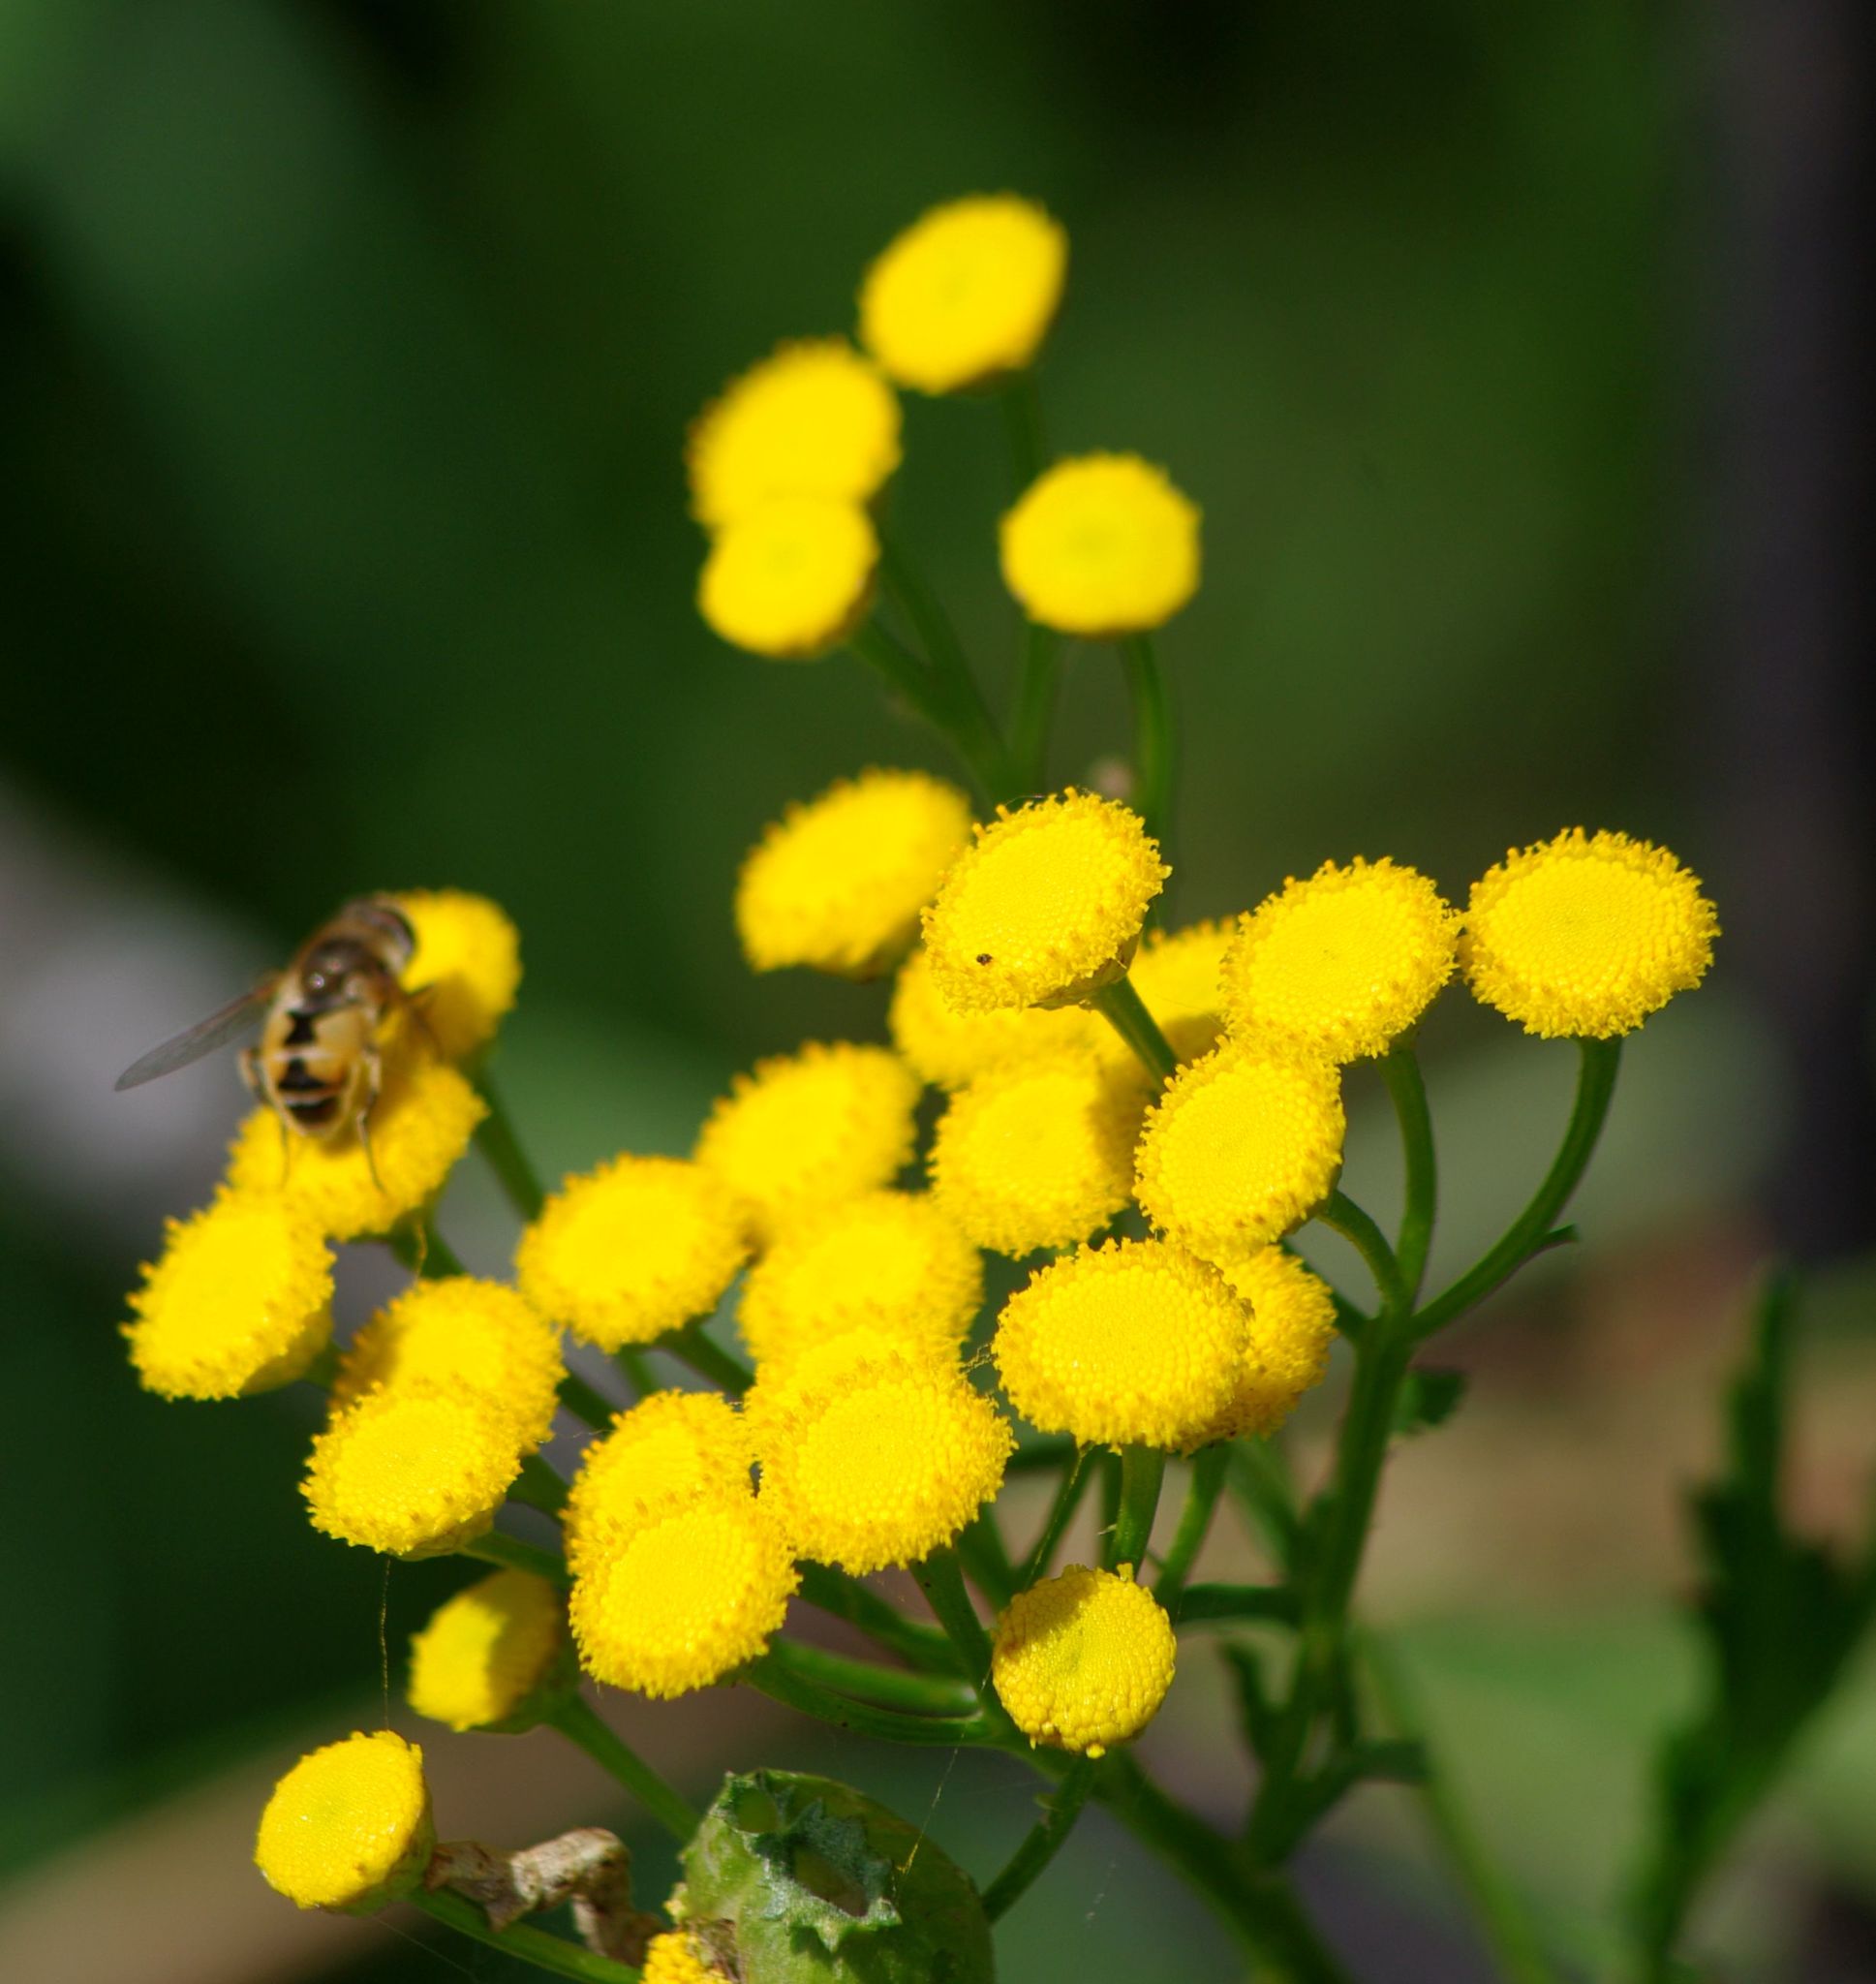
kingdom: Plantae
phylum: Tracheophyta
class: Magnoliopsida
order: Asterales
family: Asteraceae
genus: Tanacetum
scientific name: Tanacetum vulgare
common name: Common tansy
